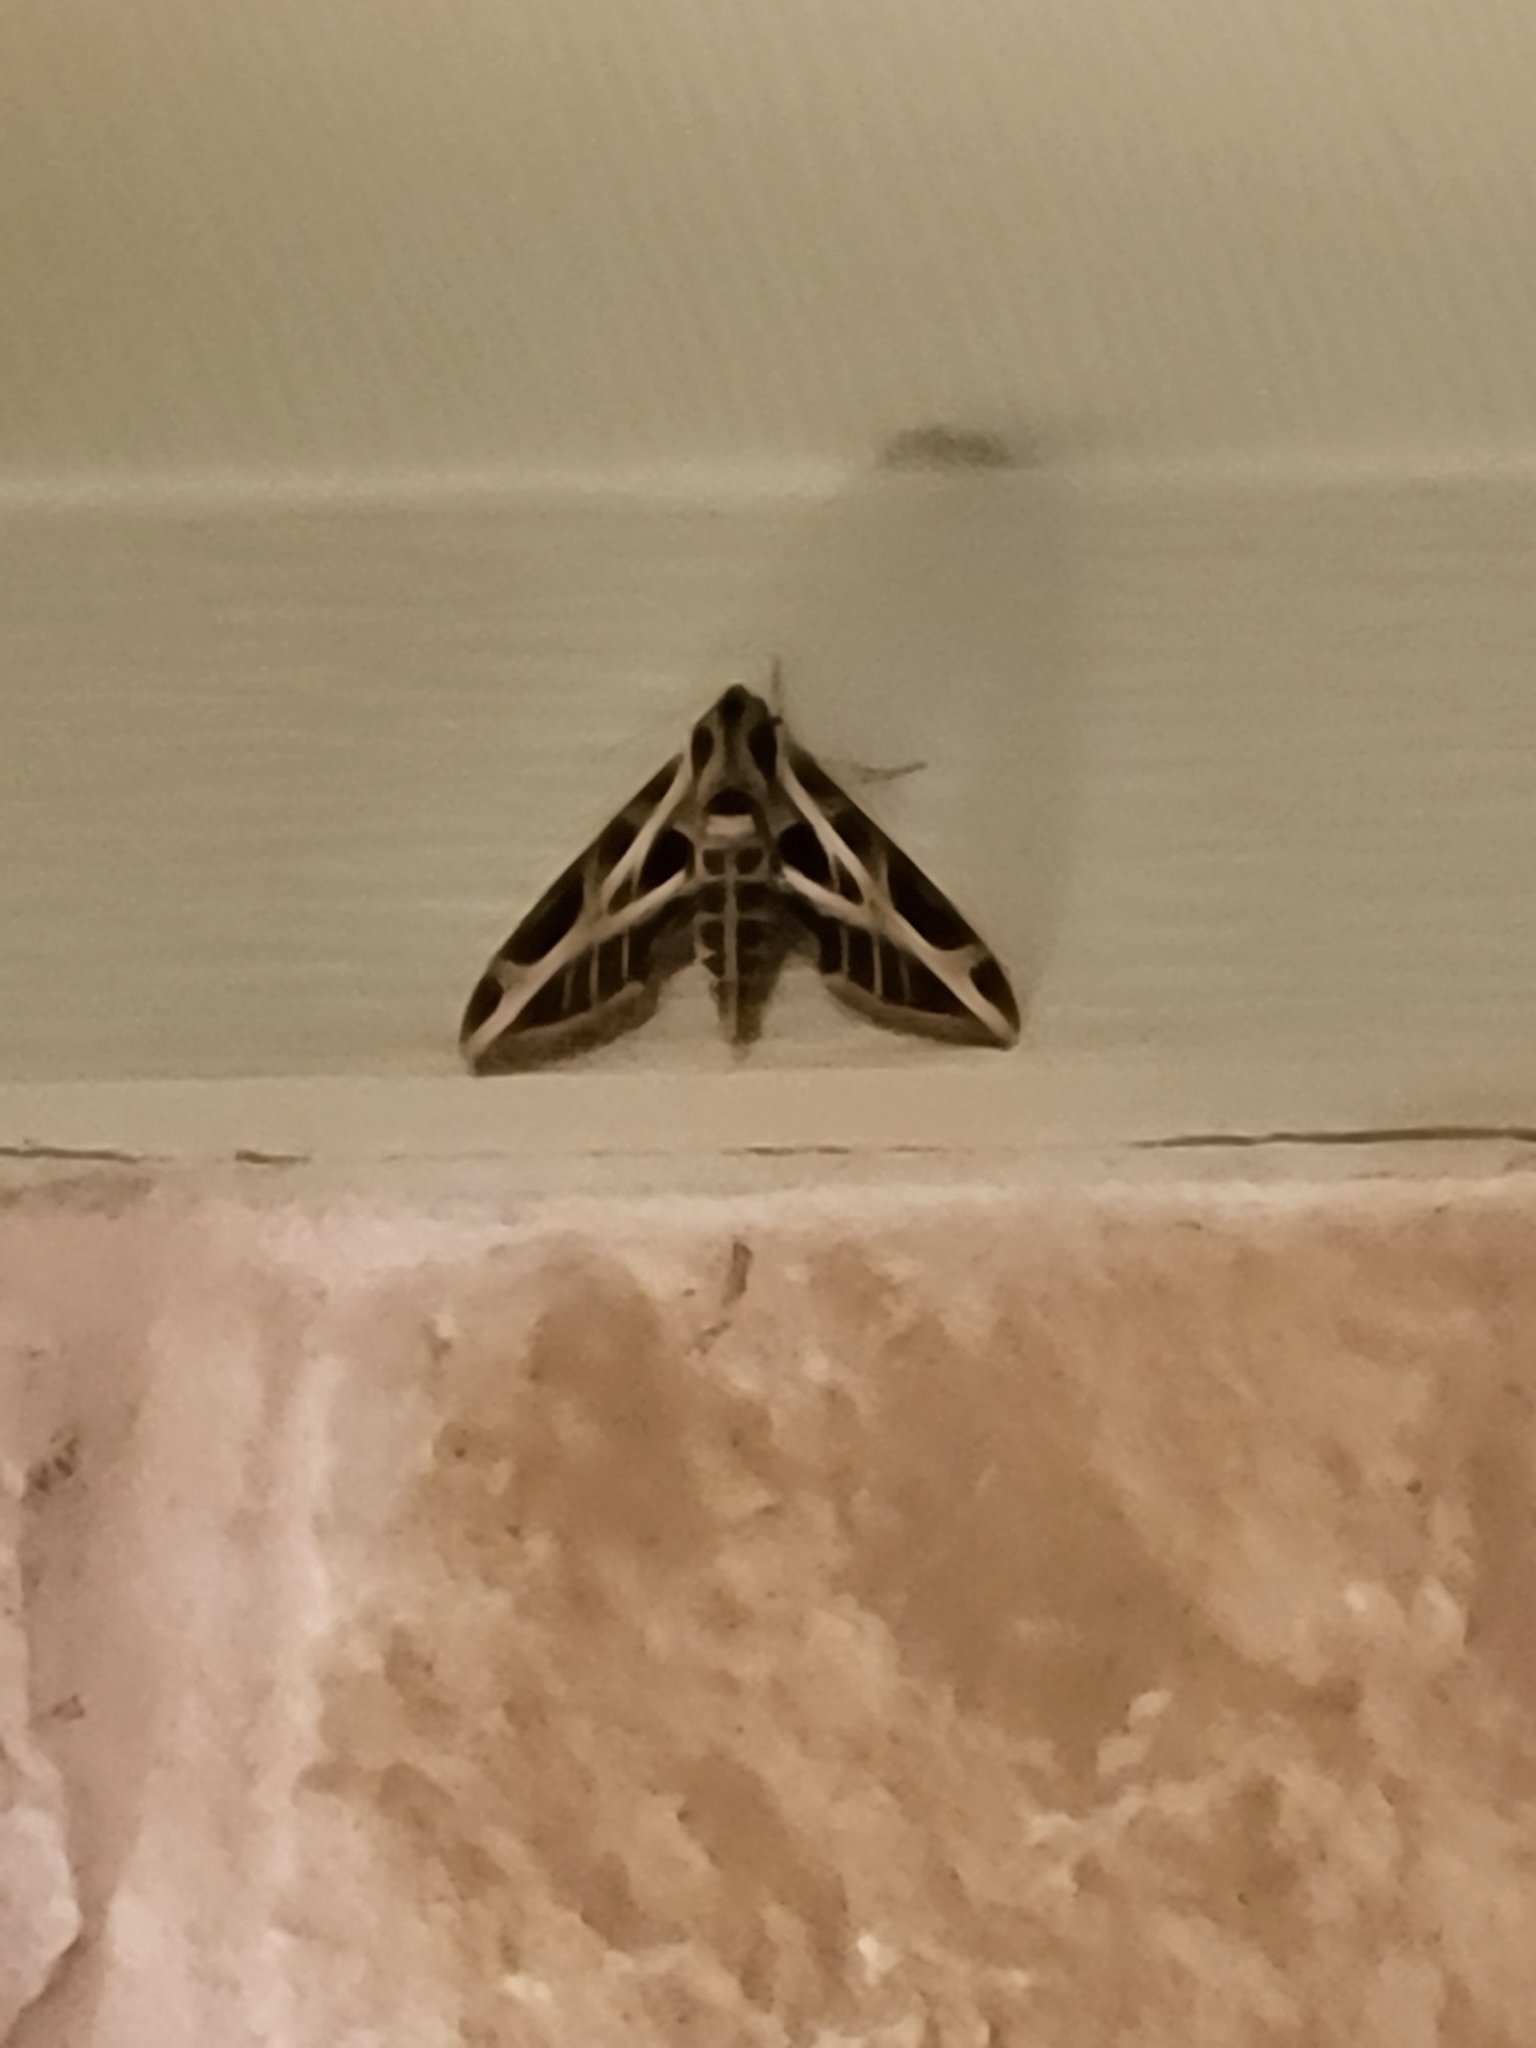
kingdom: Animalia
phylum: Arthropoda
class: Insecta
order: Lepidoptera
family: Sphingidae
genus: Eumorpha
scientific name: Eumorpha vitis
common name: Vine sphinx
